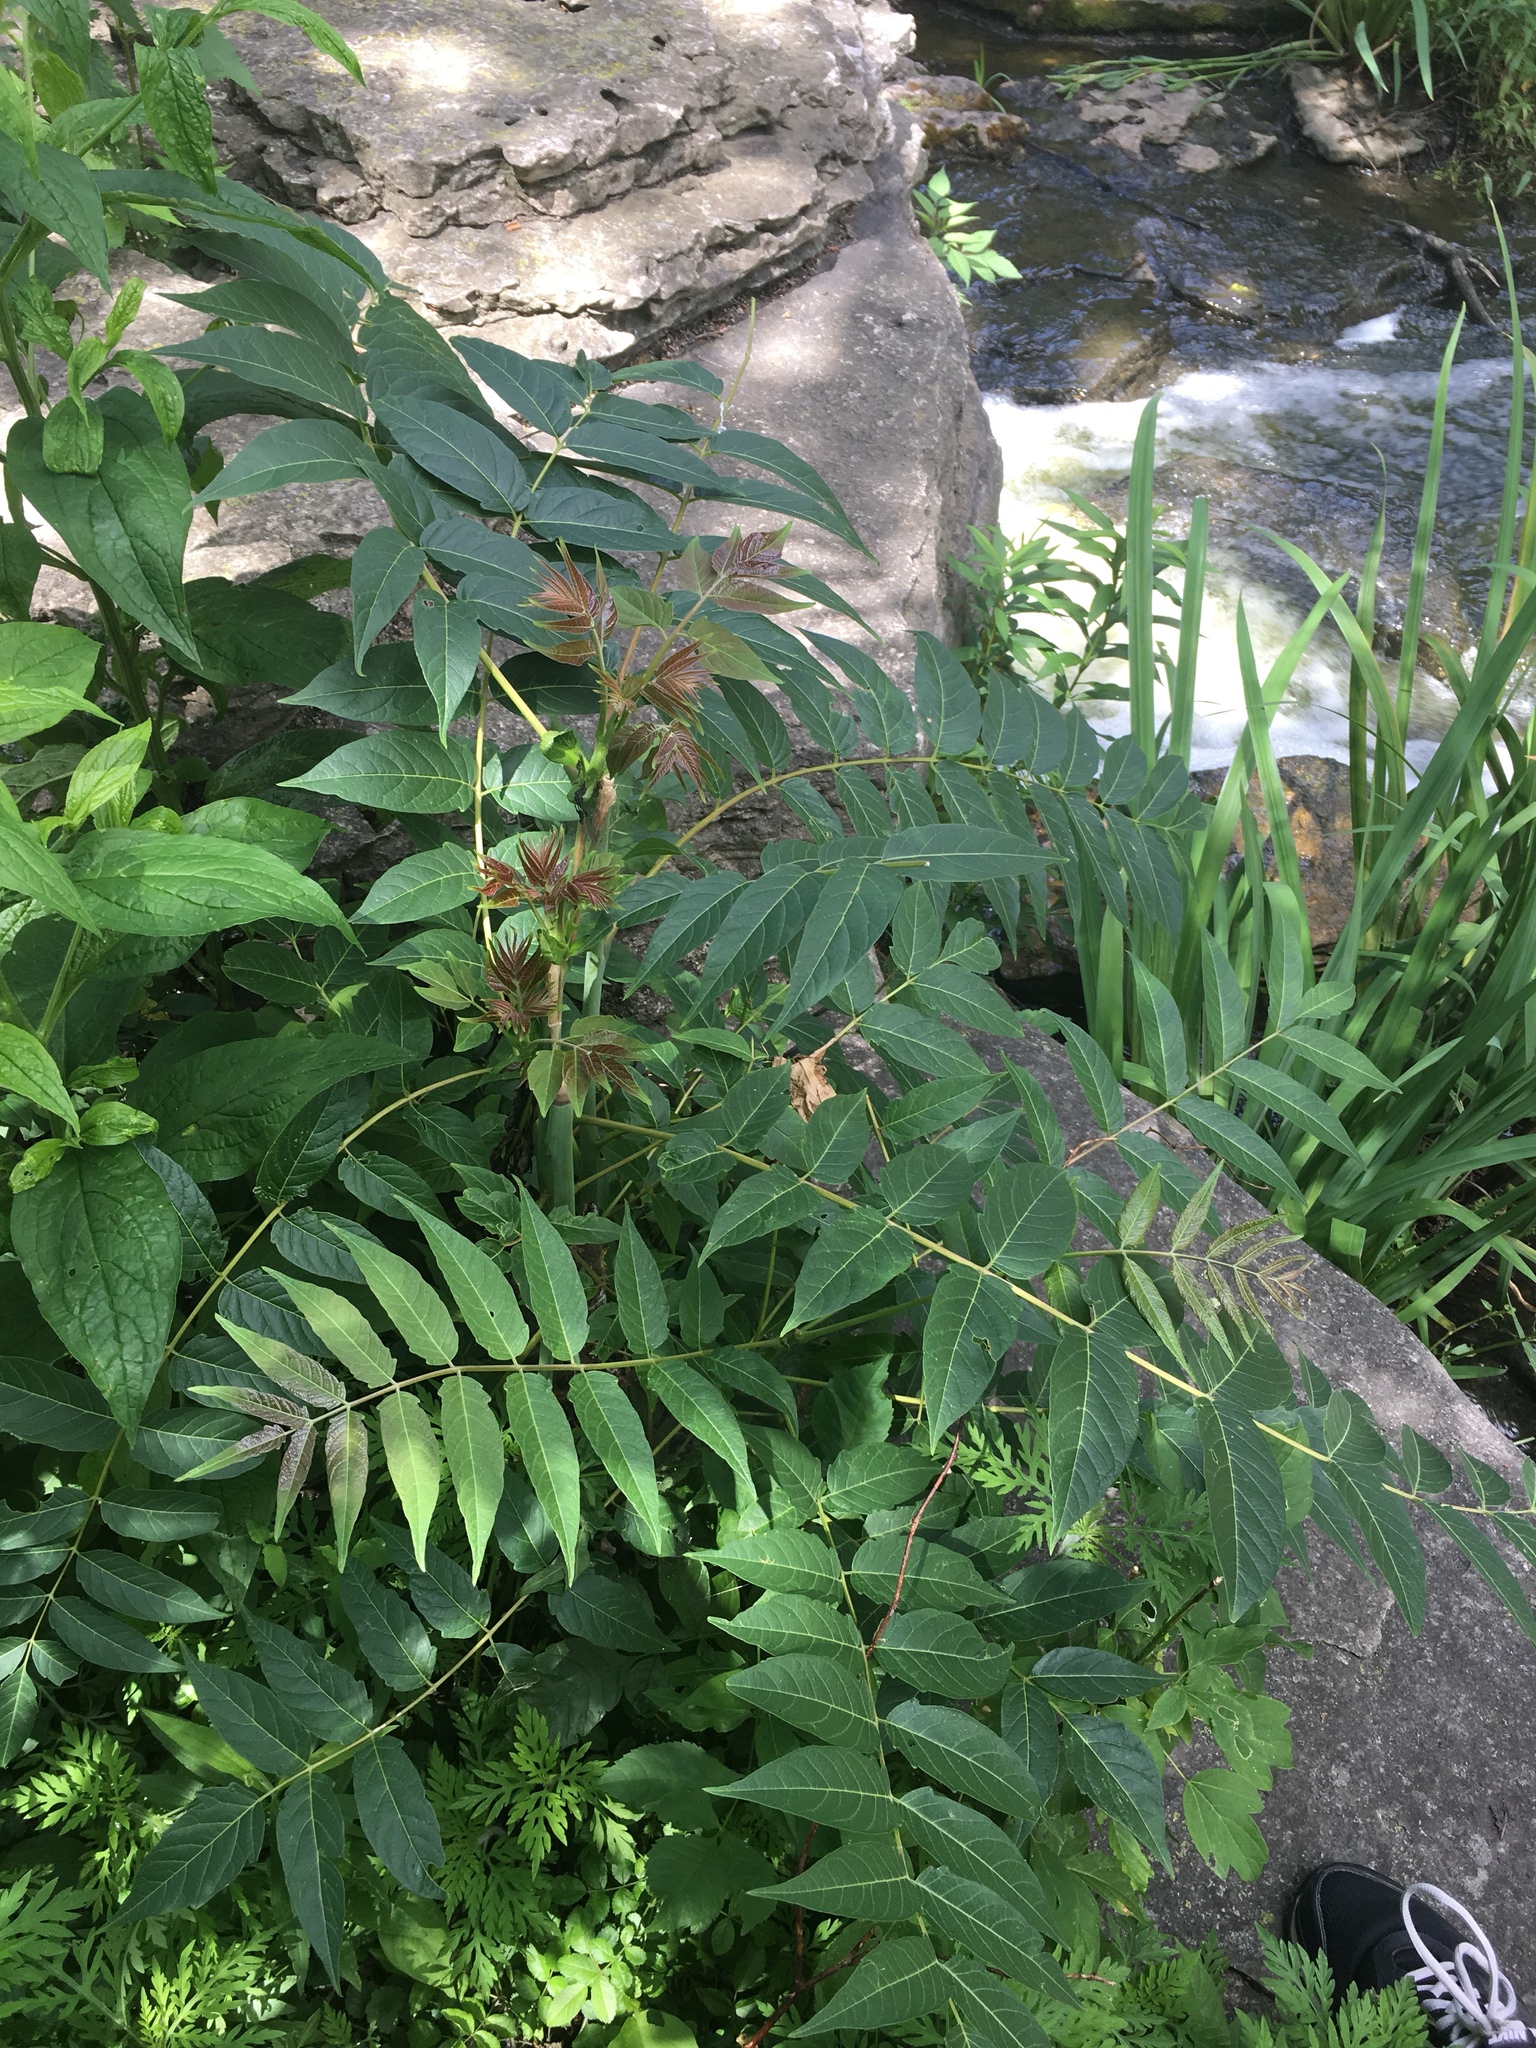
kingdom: Plantae
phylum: Tracheophyta
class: Magnoliopsida
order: Sapindales
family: Simaroubaceae
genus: Ailanthus
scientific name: Ailanthus altissima
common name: Tree-of-heaven
